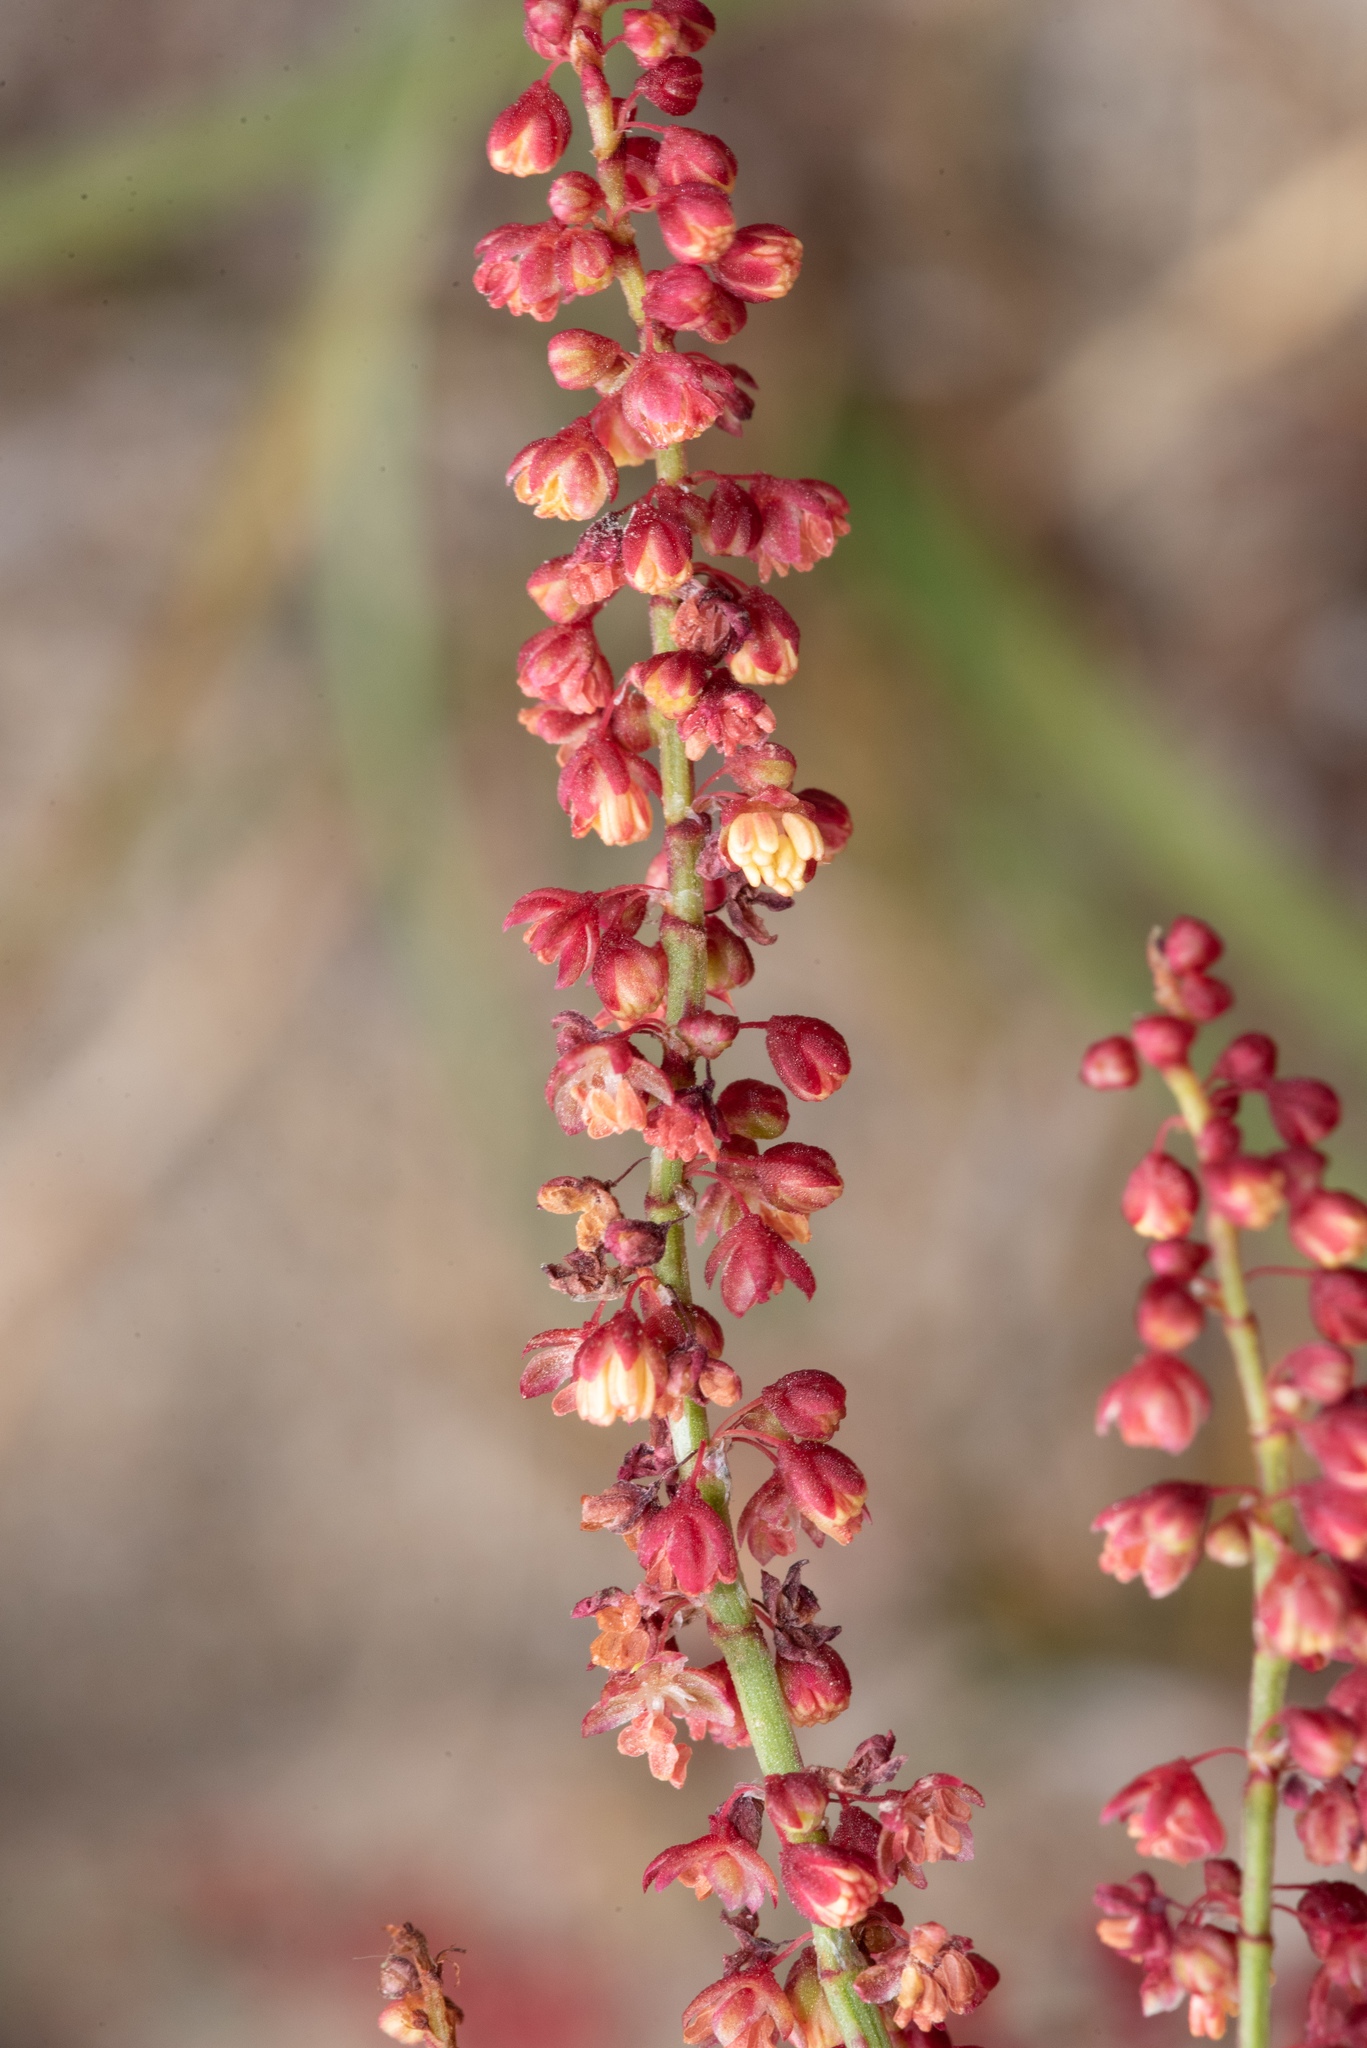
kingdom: Plantae
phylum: Tracheophyta
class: Magnoliopsida
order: Caryophyllales
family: Polygonaceae
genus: Rumex
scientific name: Rumex acetosella
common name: Common sheep sorrel
